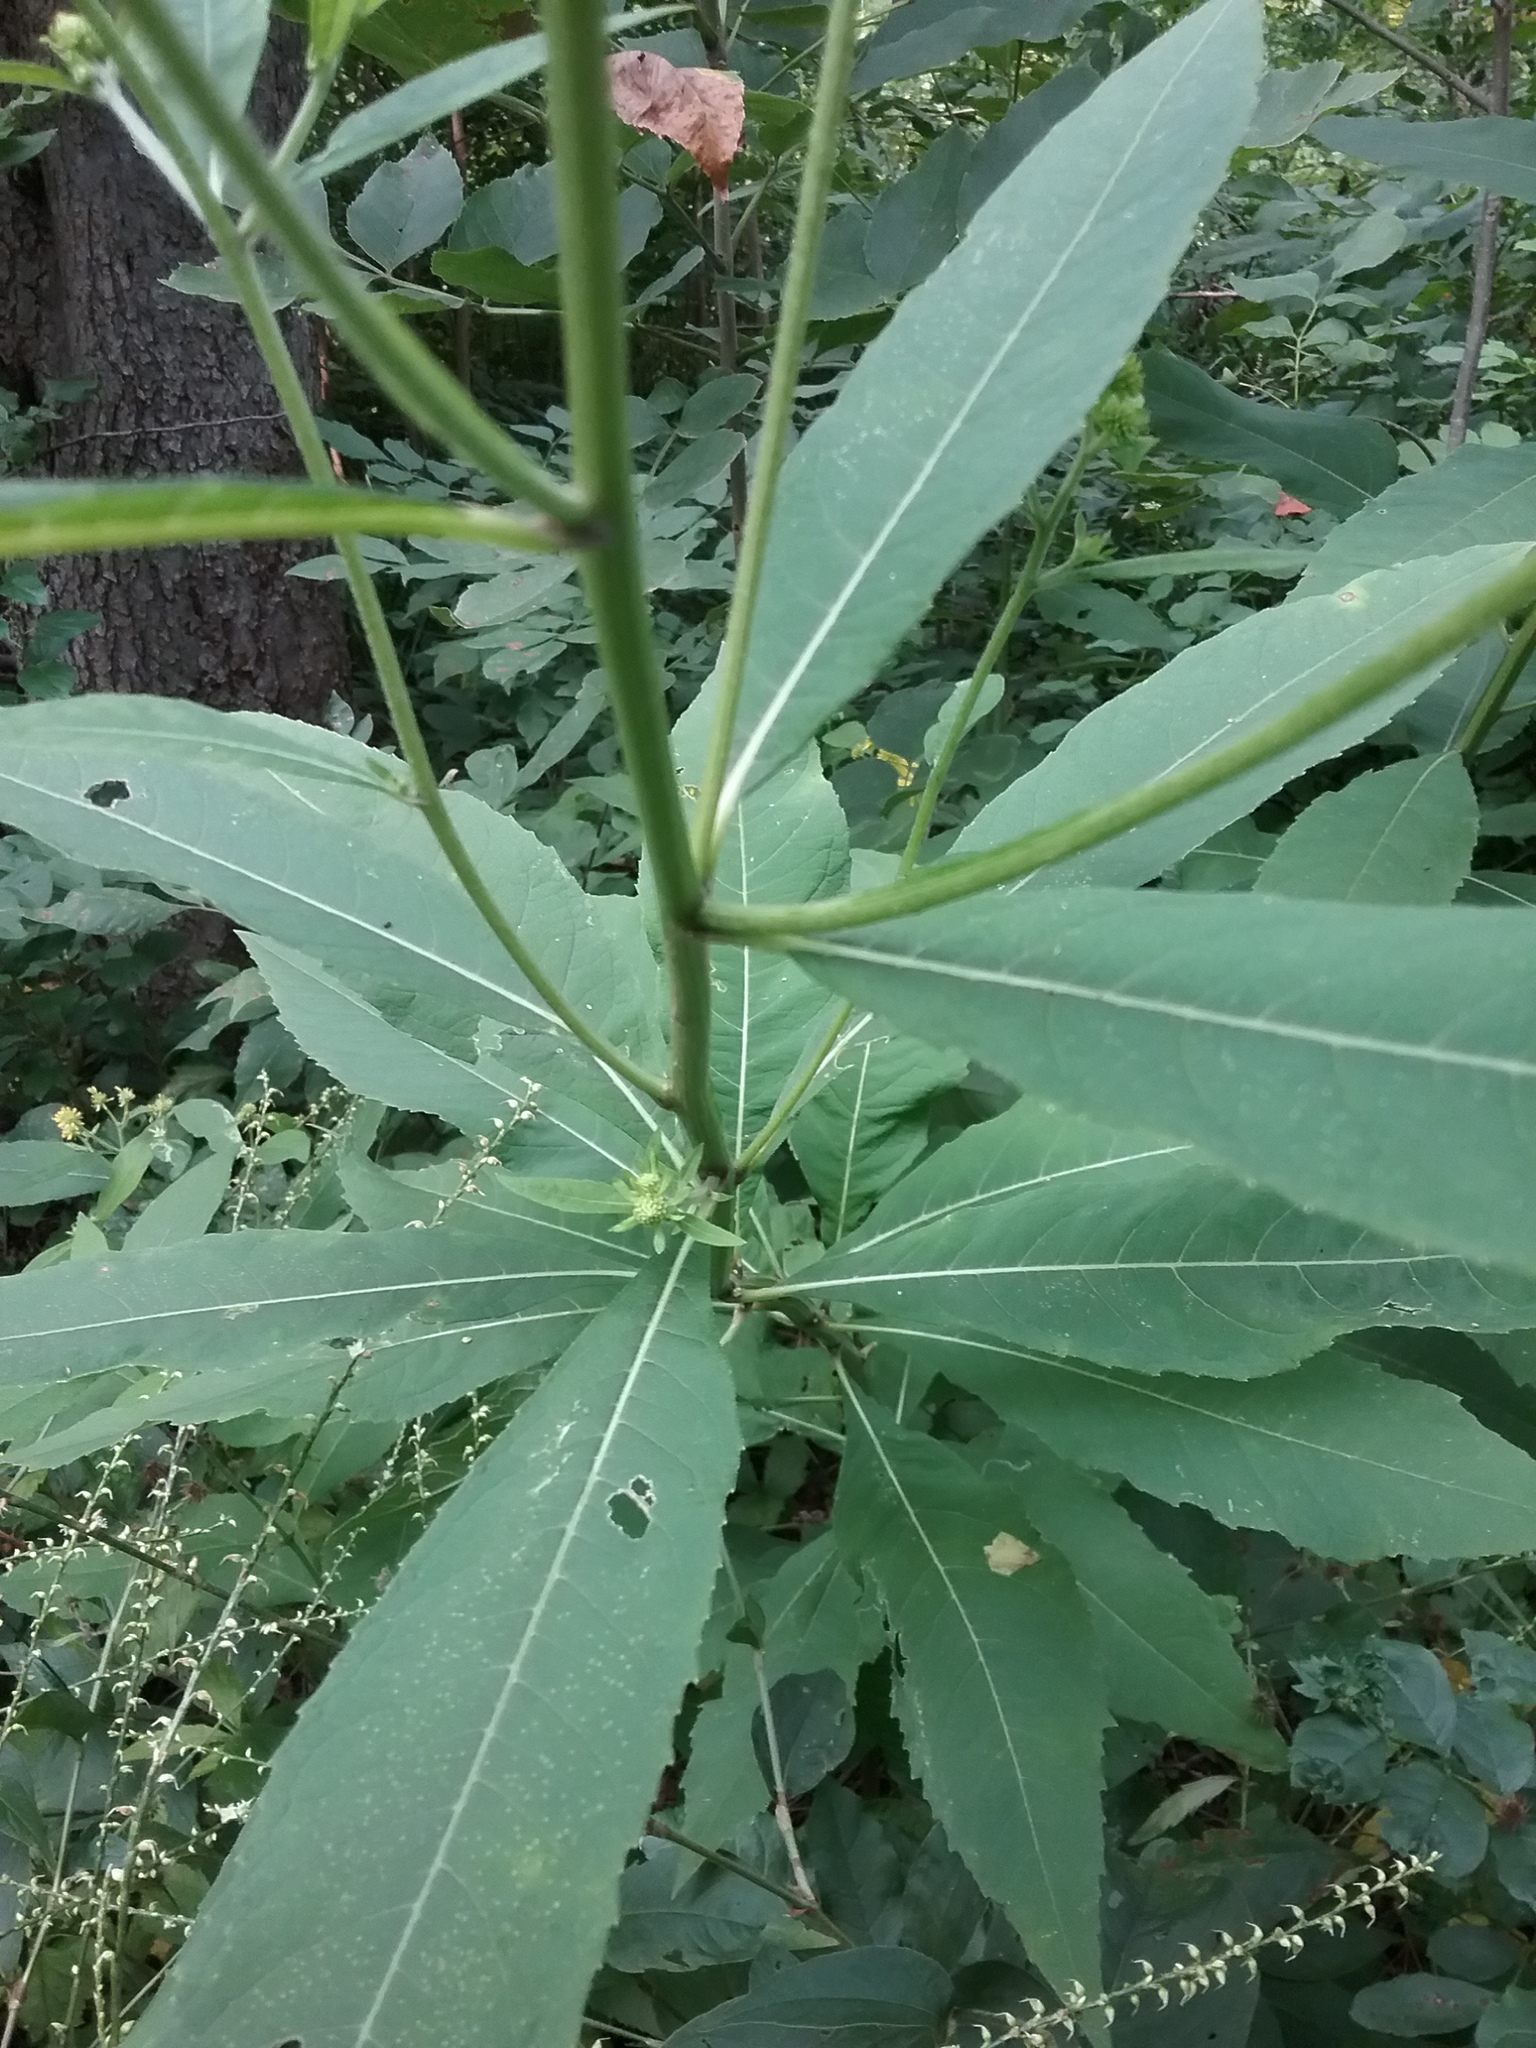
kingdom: Plantae
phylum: Tracheophyta
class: Magnoliopsida
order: Asterales
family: Asteraceae
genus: Verbesina
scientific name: Verbesina alternifolia
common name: Wingstem
